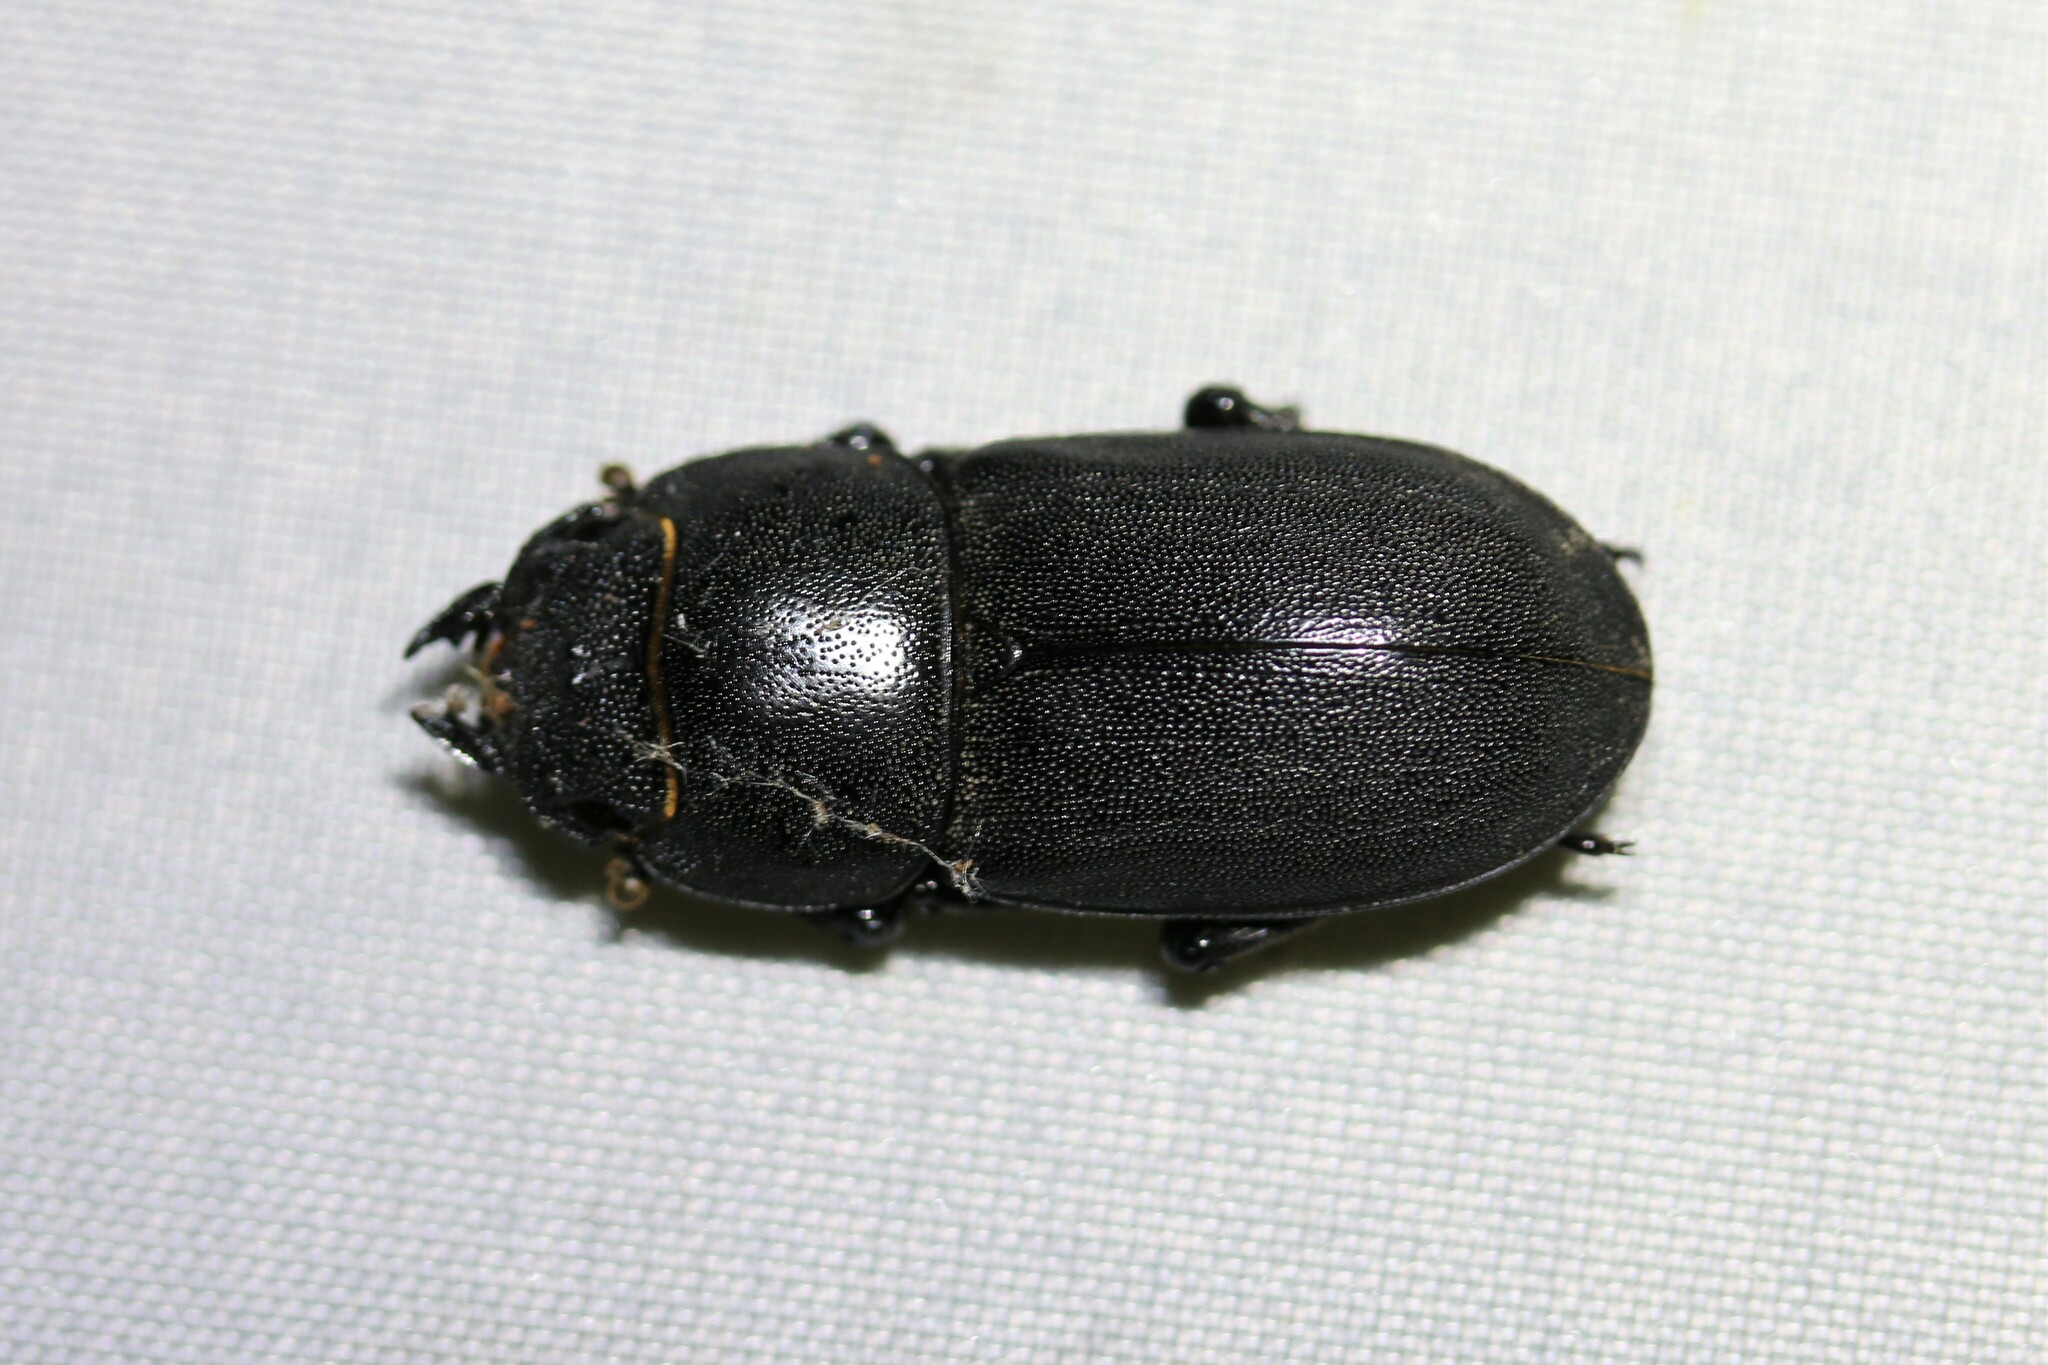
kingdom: Animalia
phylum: Arthropoda
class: Insecta
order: Coleoptera
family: Lucanidae
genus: Dorcus
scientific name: Dorcus parallelipipedus
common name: Lesser stag beetle
